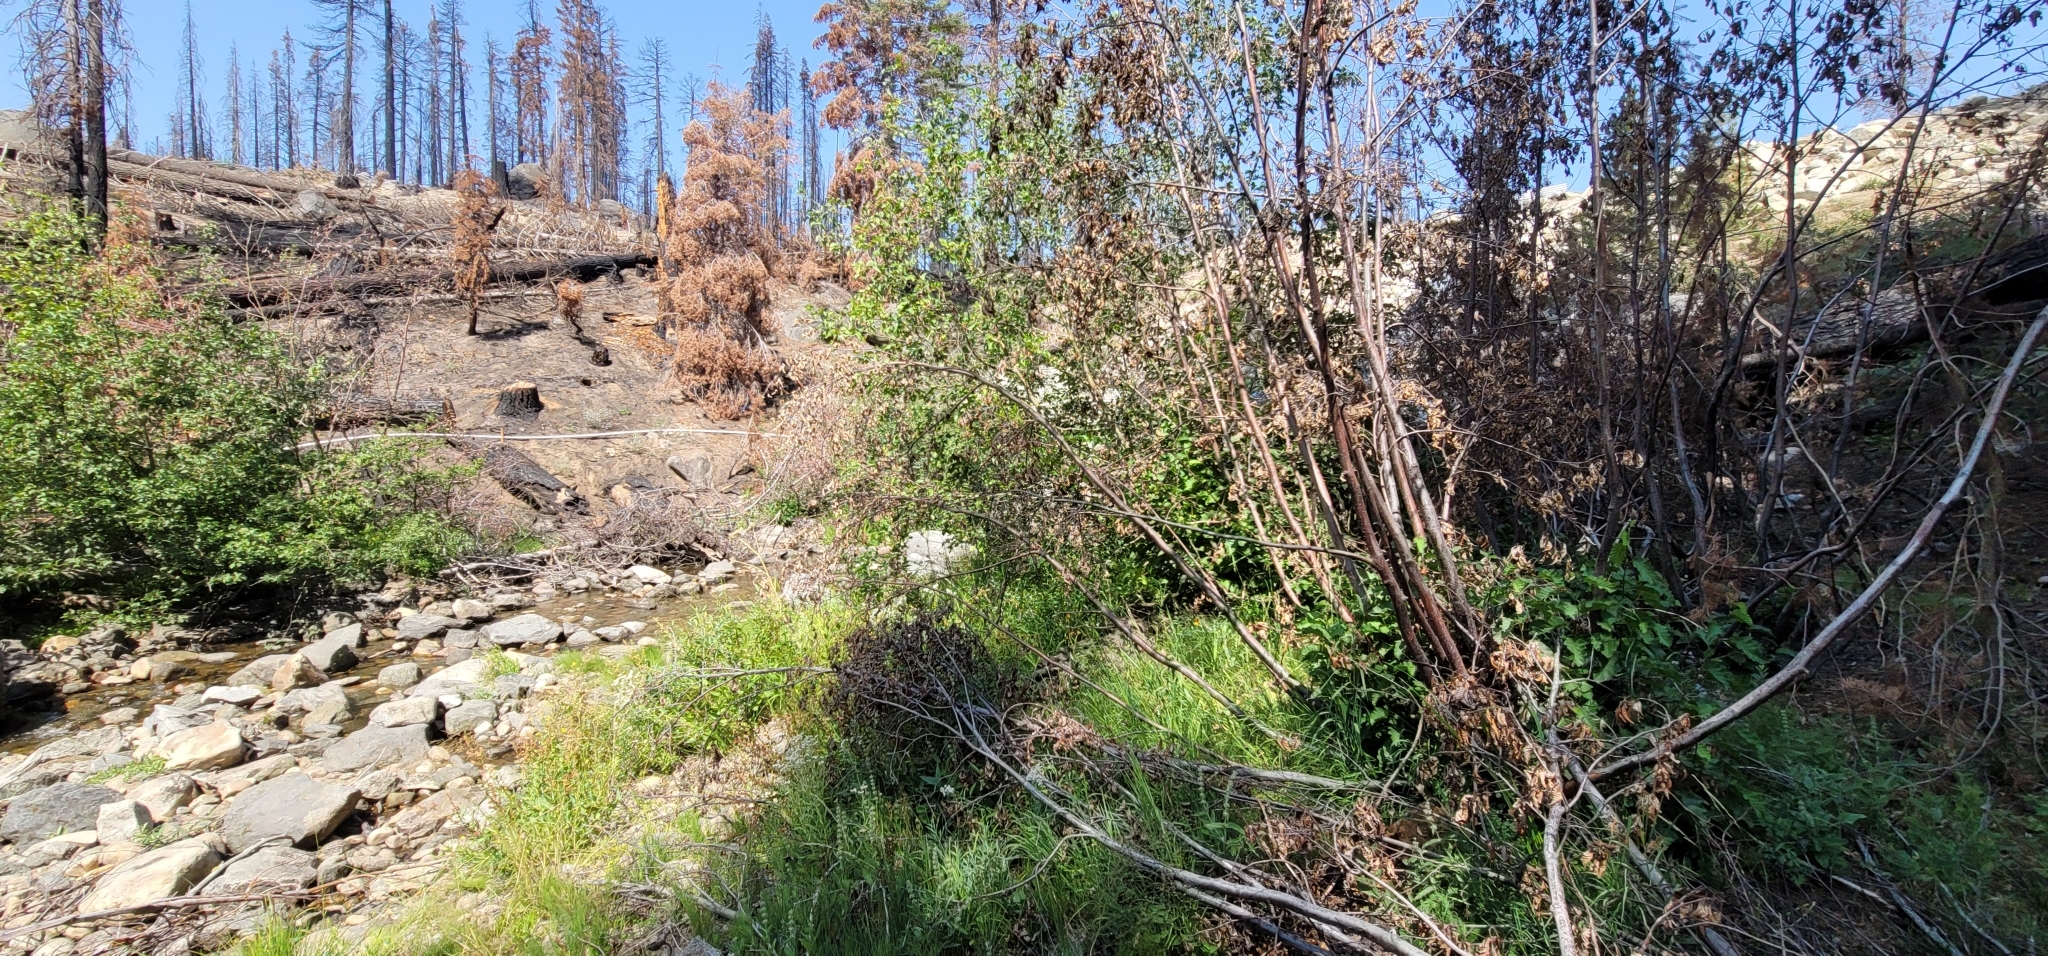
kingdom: Plantae
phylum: Tracheophyta
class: Liliopsida
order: Poales
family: Poaceae
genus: Cinna
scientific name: Cinna bolanderi
